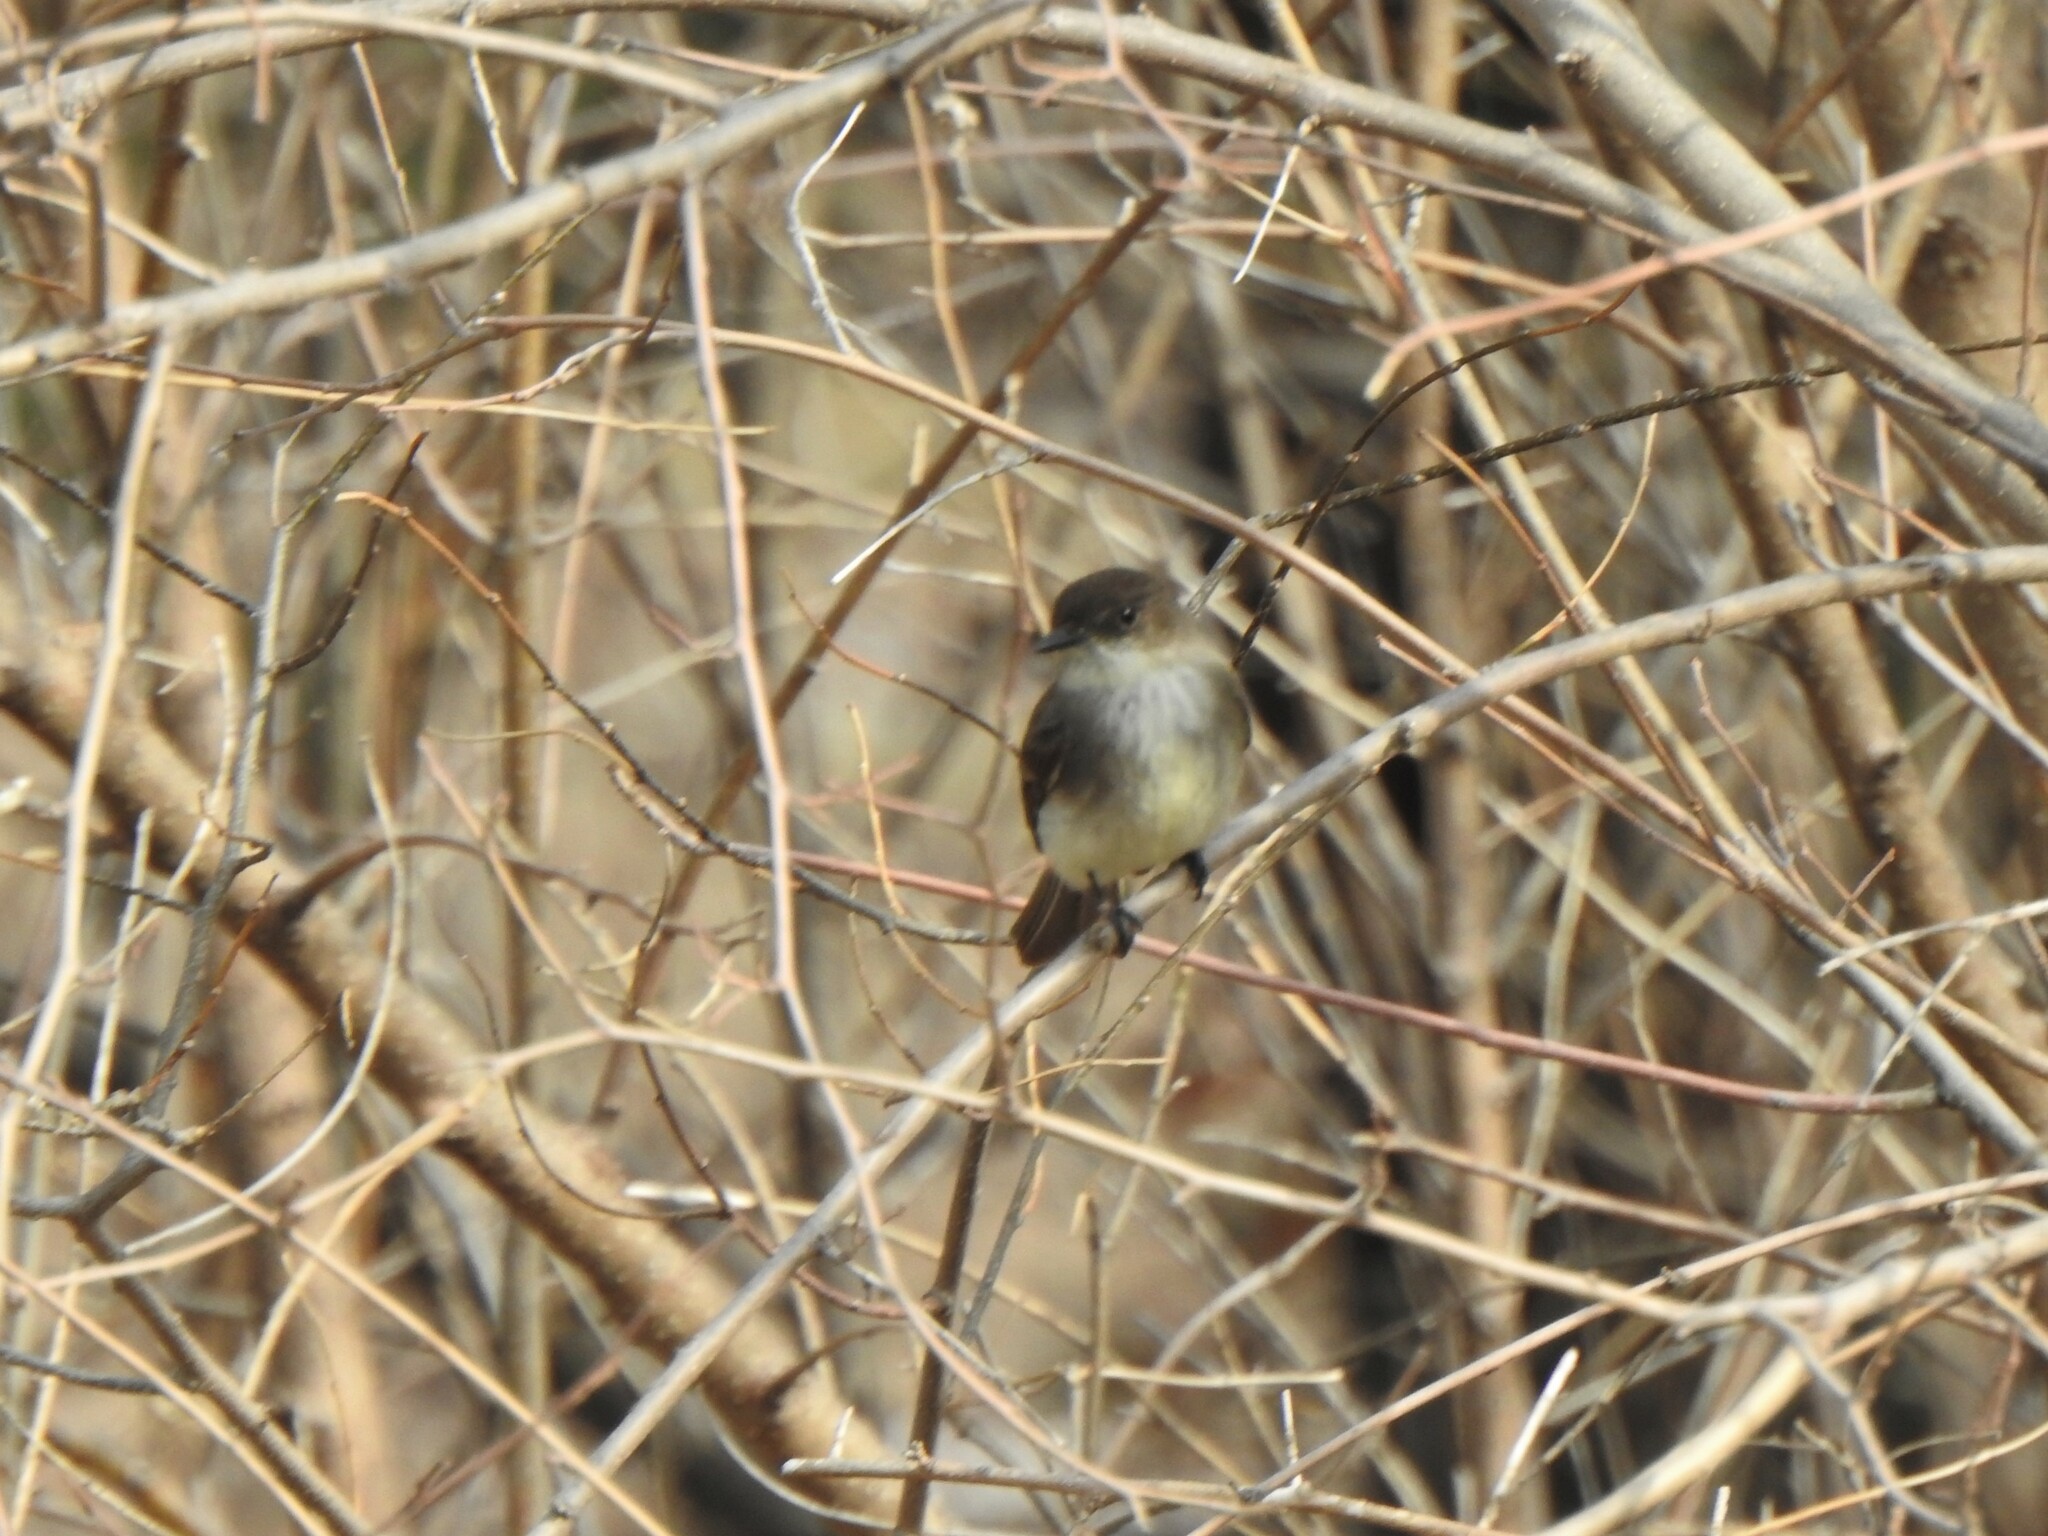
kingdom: Animalia
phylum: Chordata
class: Aves
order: Passeriformes
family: Tyrannidae
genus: Sayornis
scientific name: Sayornis phoebe
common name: Eastern phoebe
